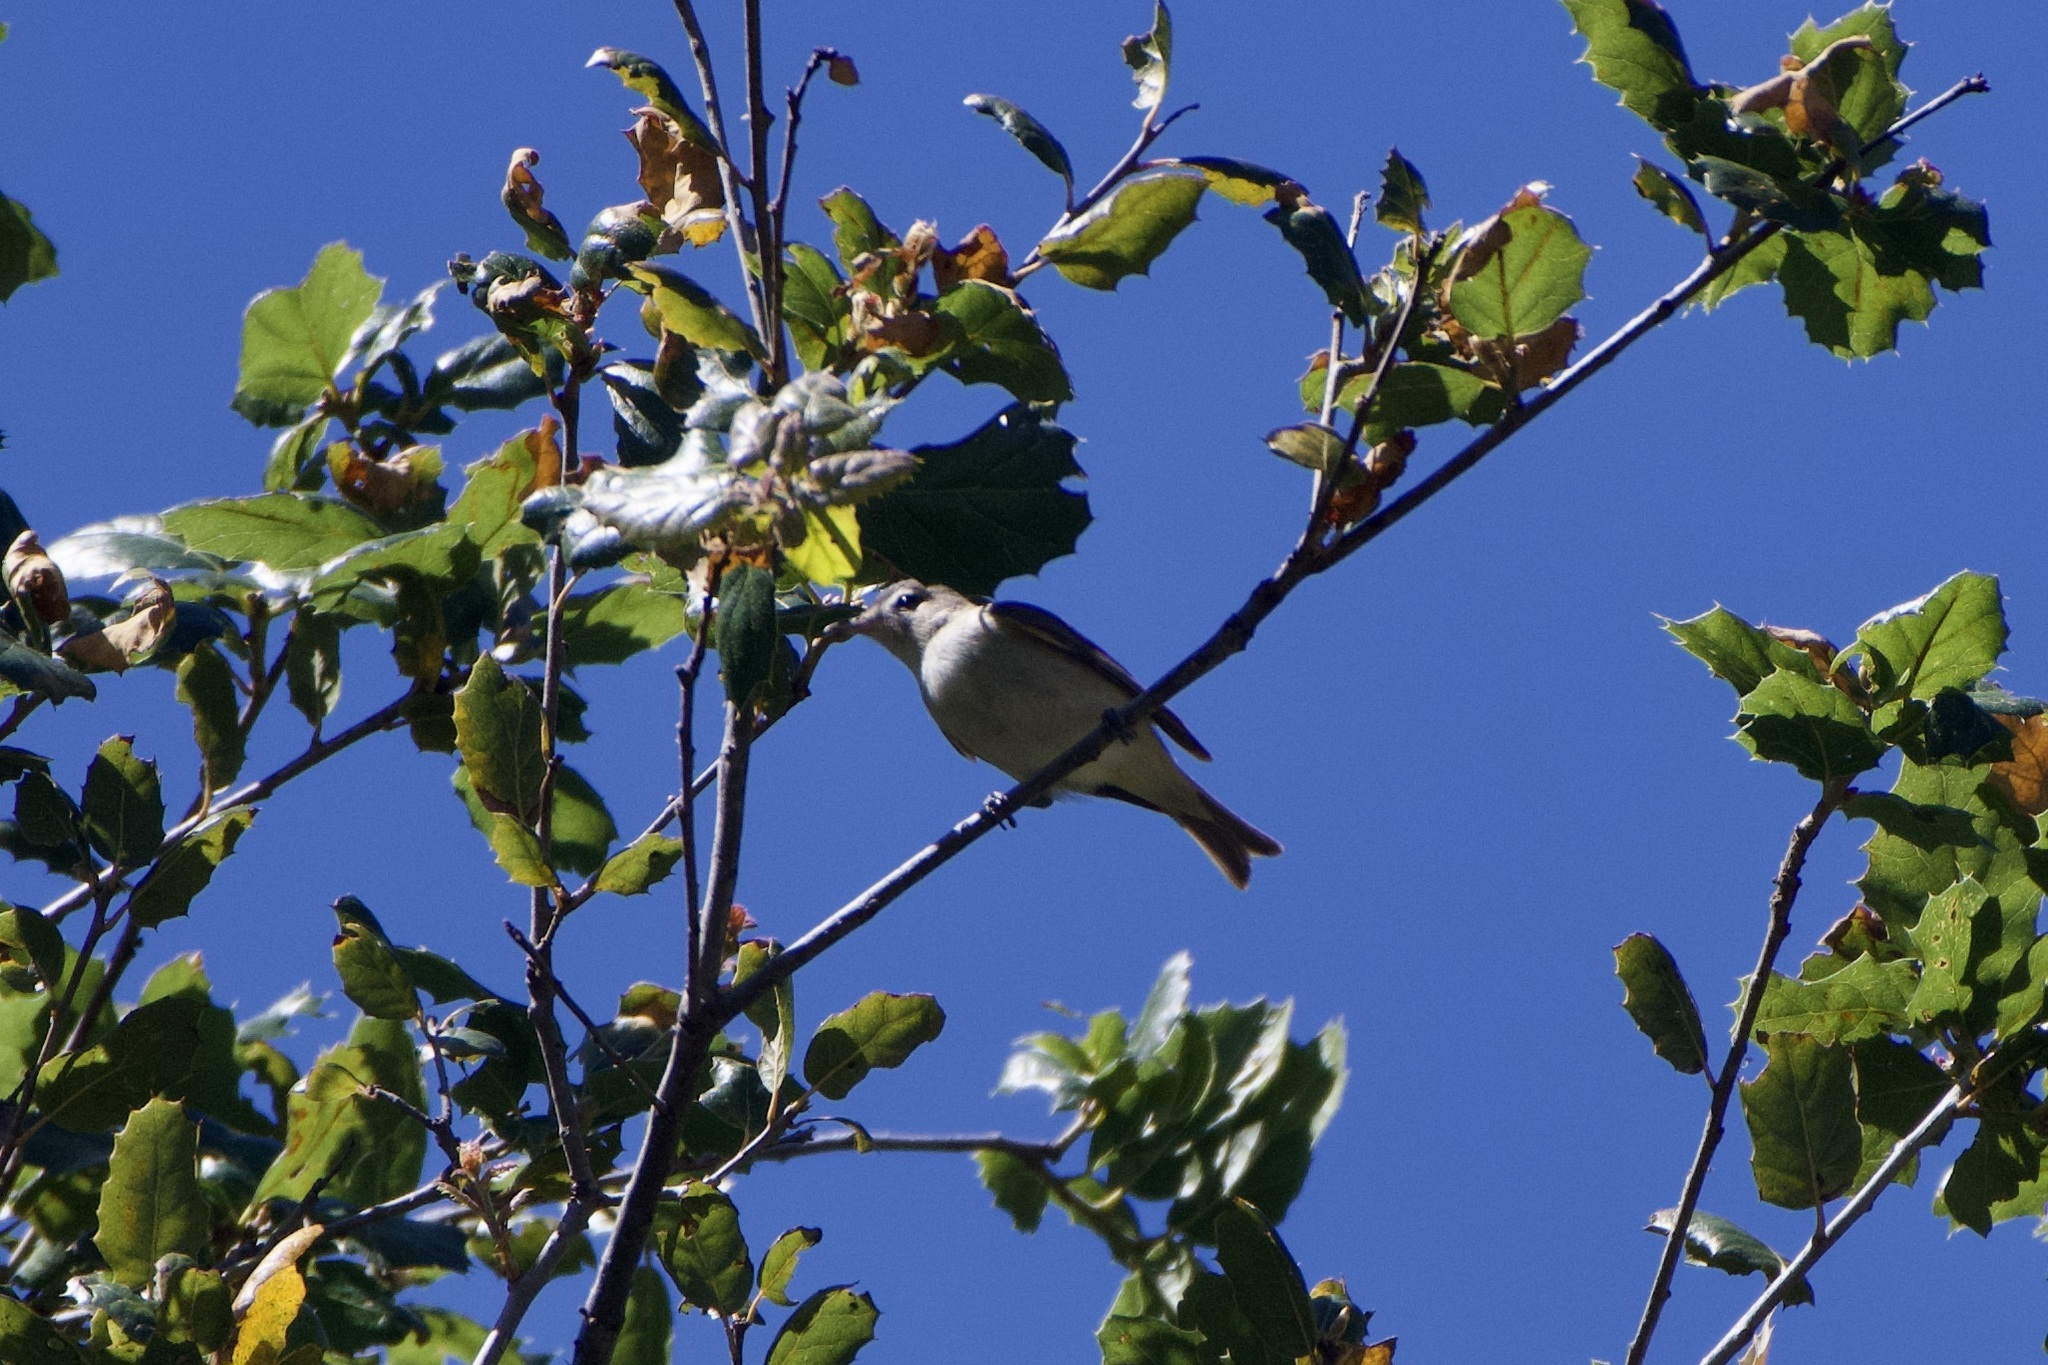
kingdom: Animalia
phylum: Chordata
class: Aves
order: Passeriformes
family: Vireonidae
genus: Vireo
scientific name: Vireo gilvus
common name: Warbling vireo
